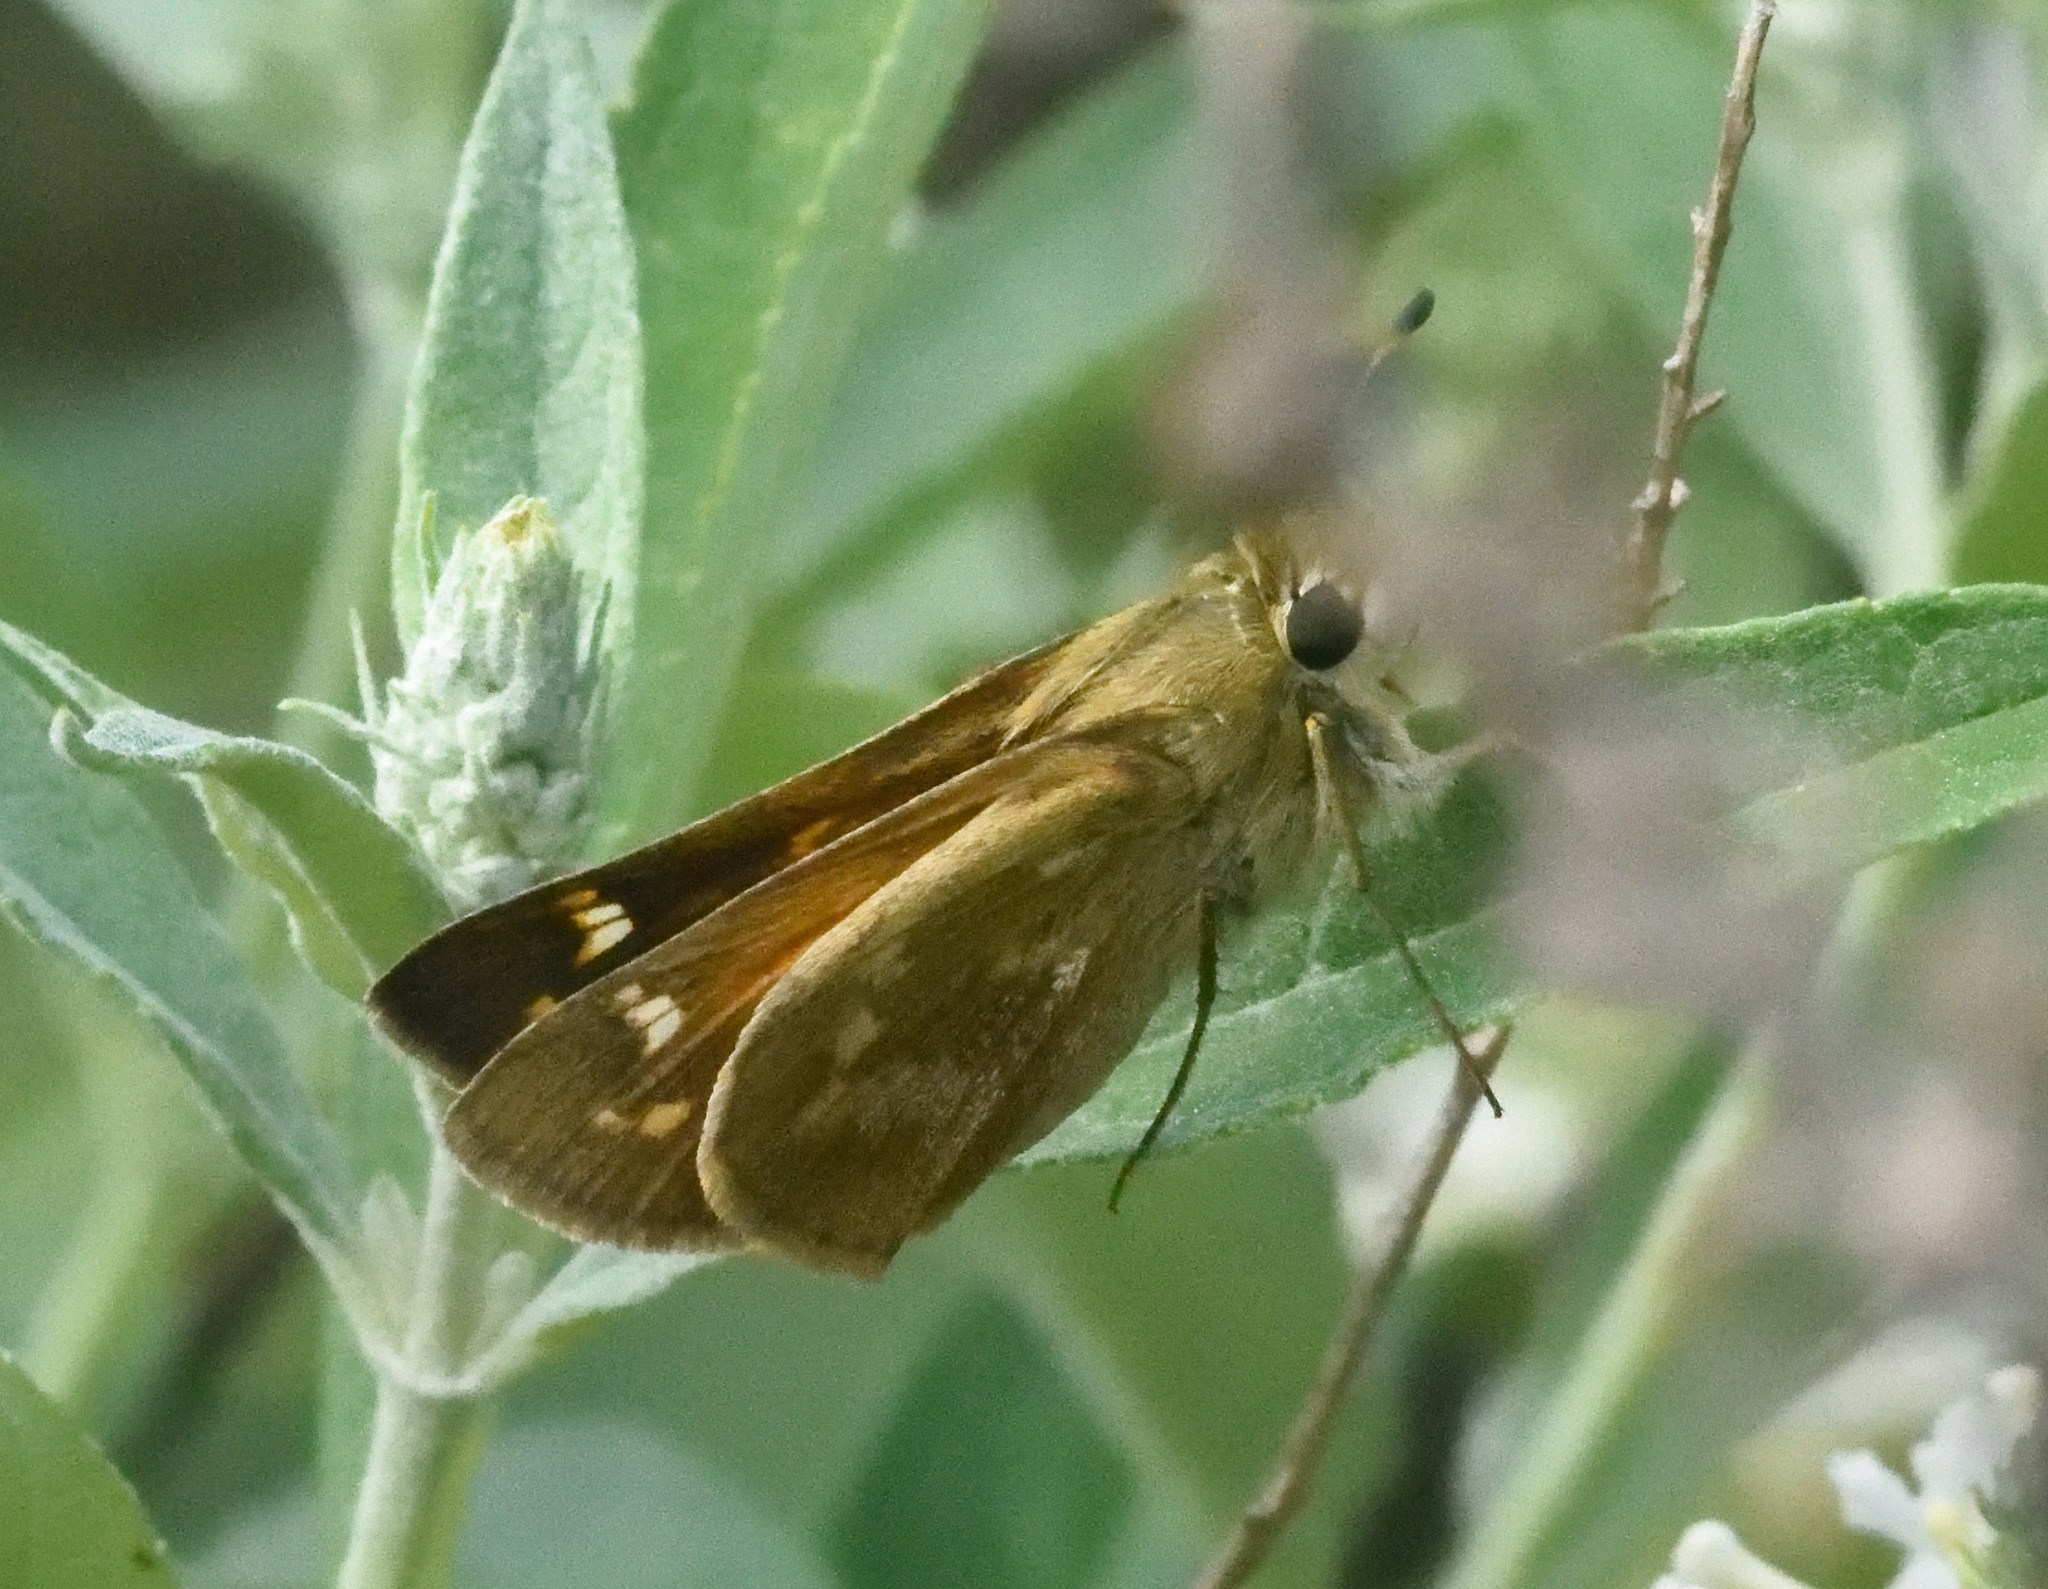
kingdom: Animalia
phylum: Arthropoda
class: Insecta
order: Lepidoptera
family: Hesperiidae
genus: Atalopedes
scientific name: Atalopedes
